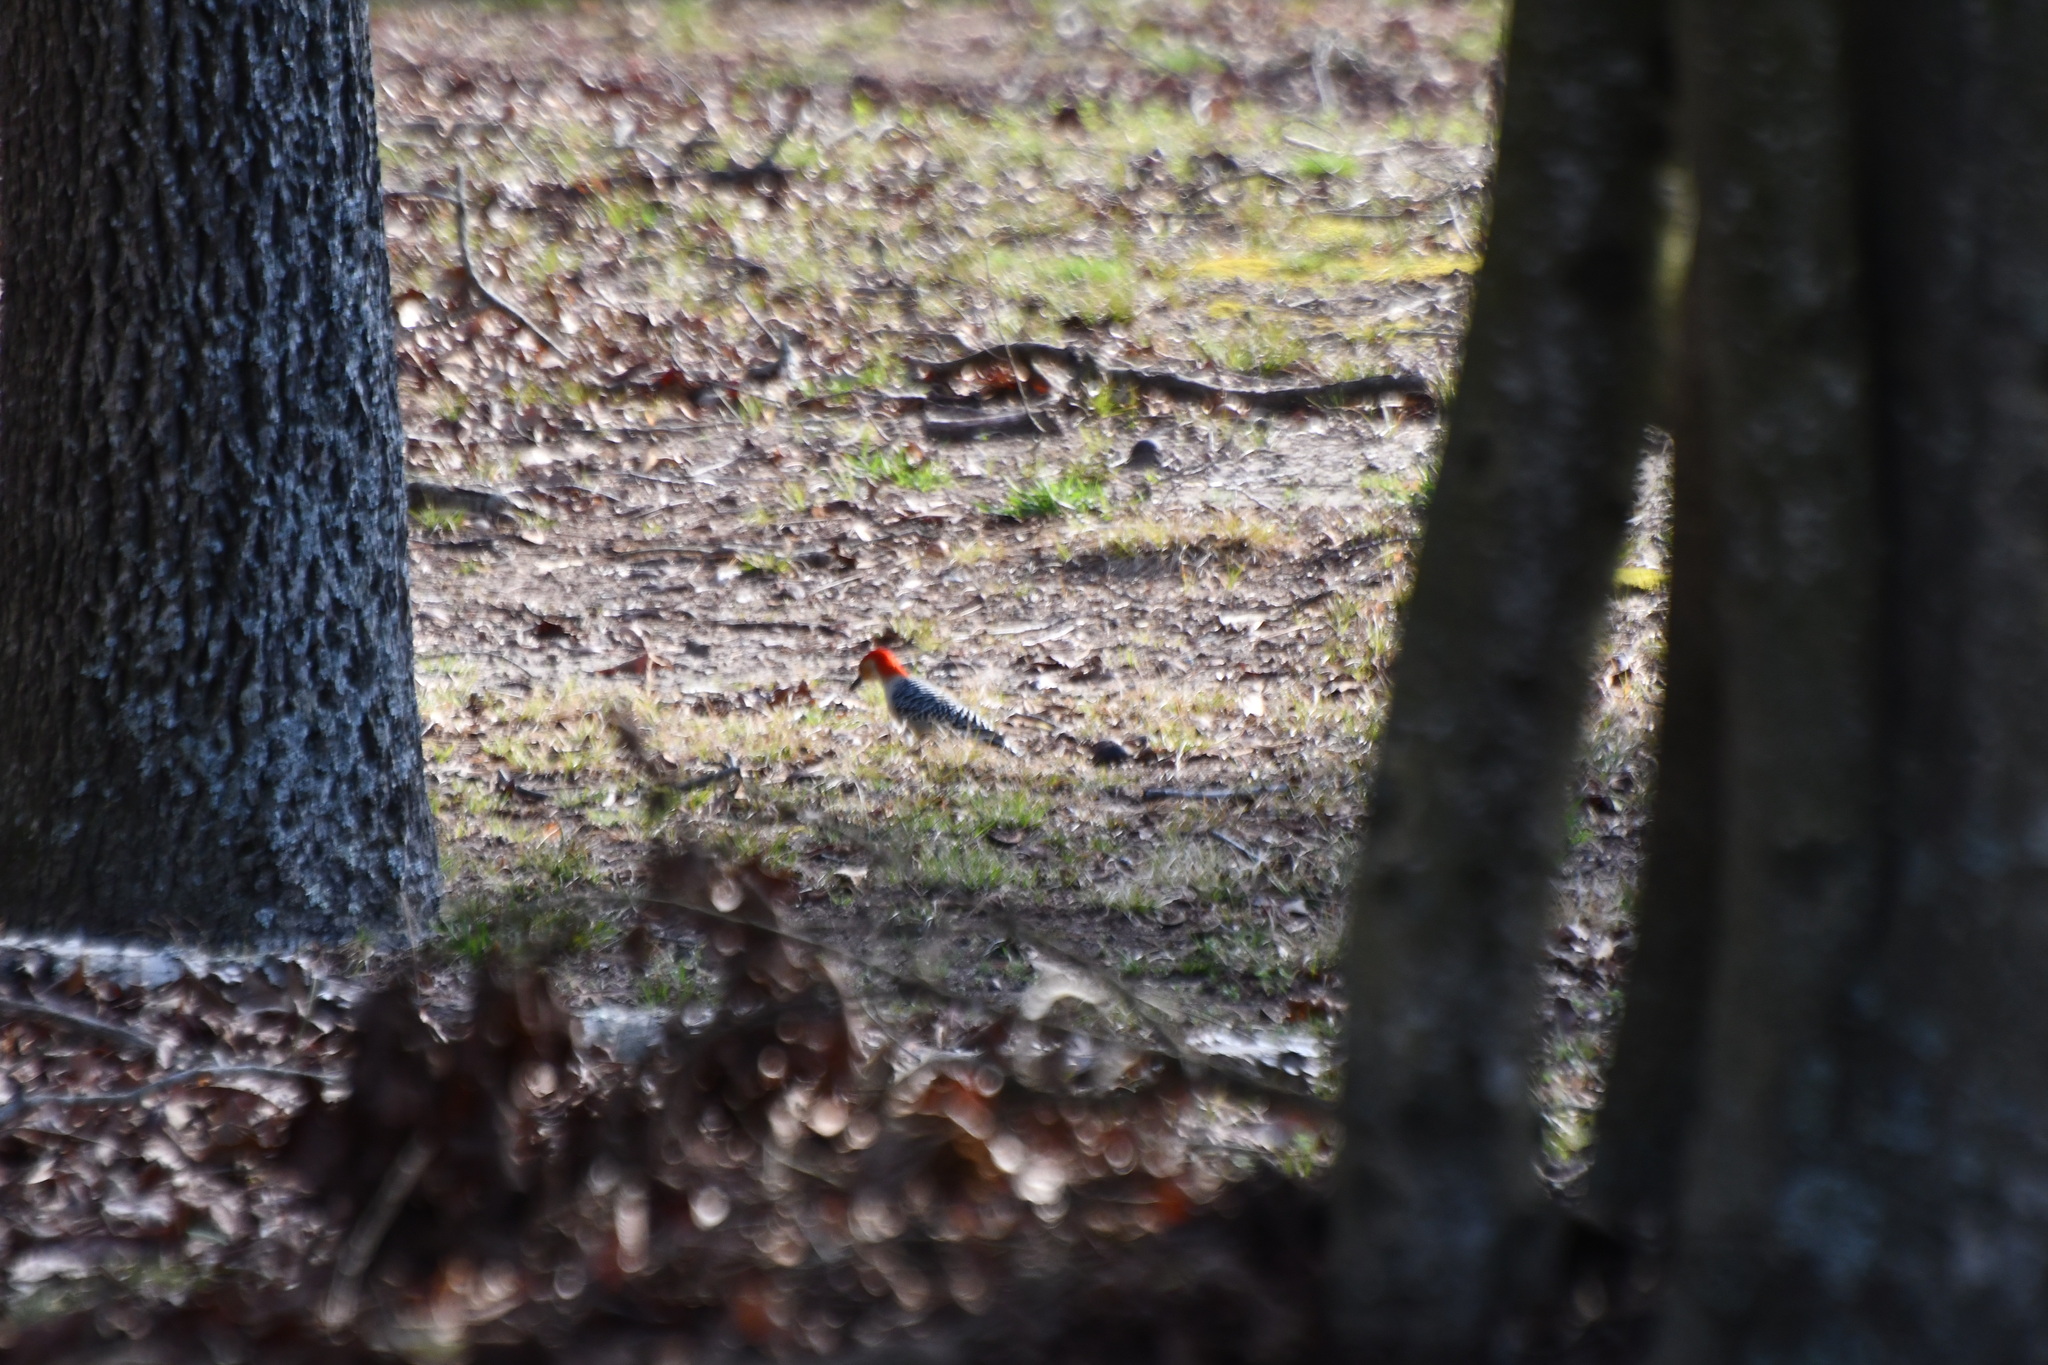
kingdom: Animalia
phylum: Chordata
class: Aves
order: Piciformes
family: Picidae
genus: Melanerpes
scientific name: Melanerpes carolinus
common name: Red-bellied woodpecker
